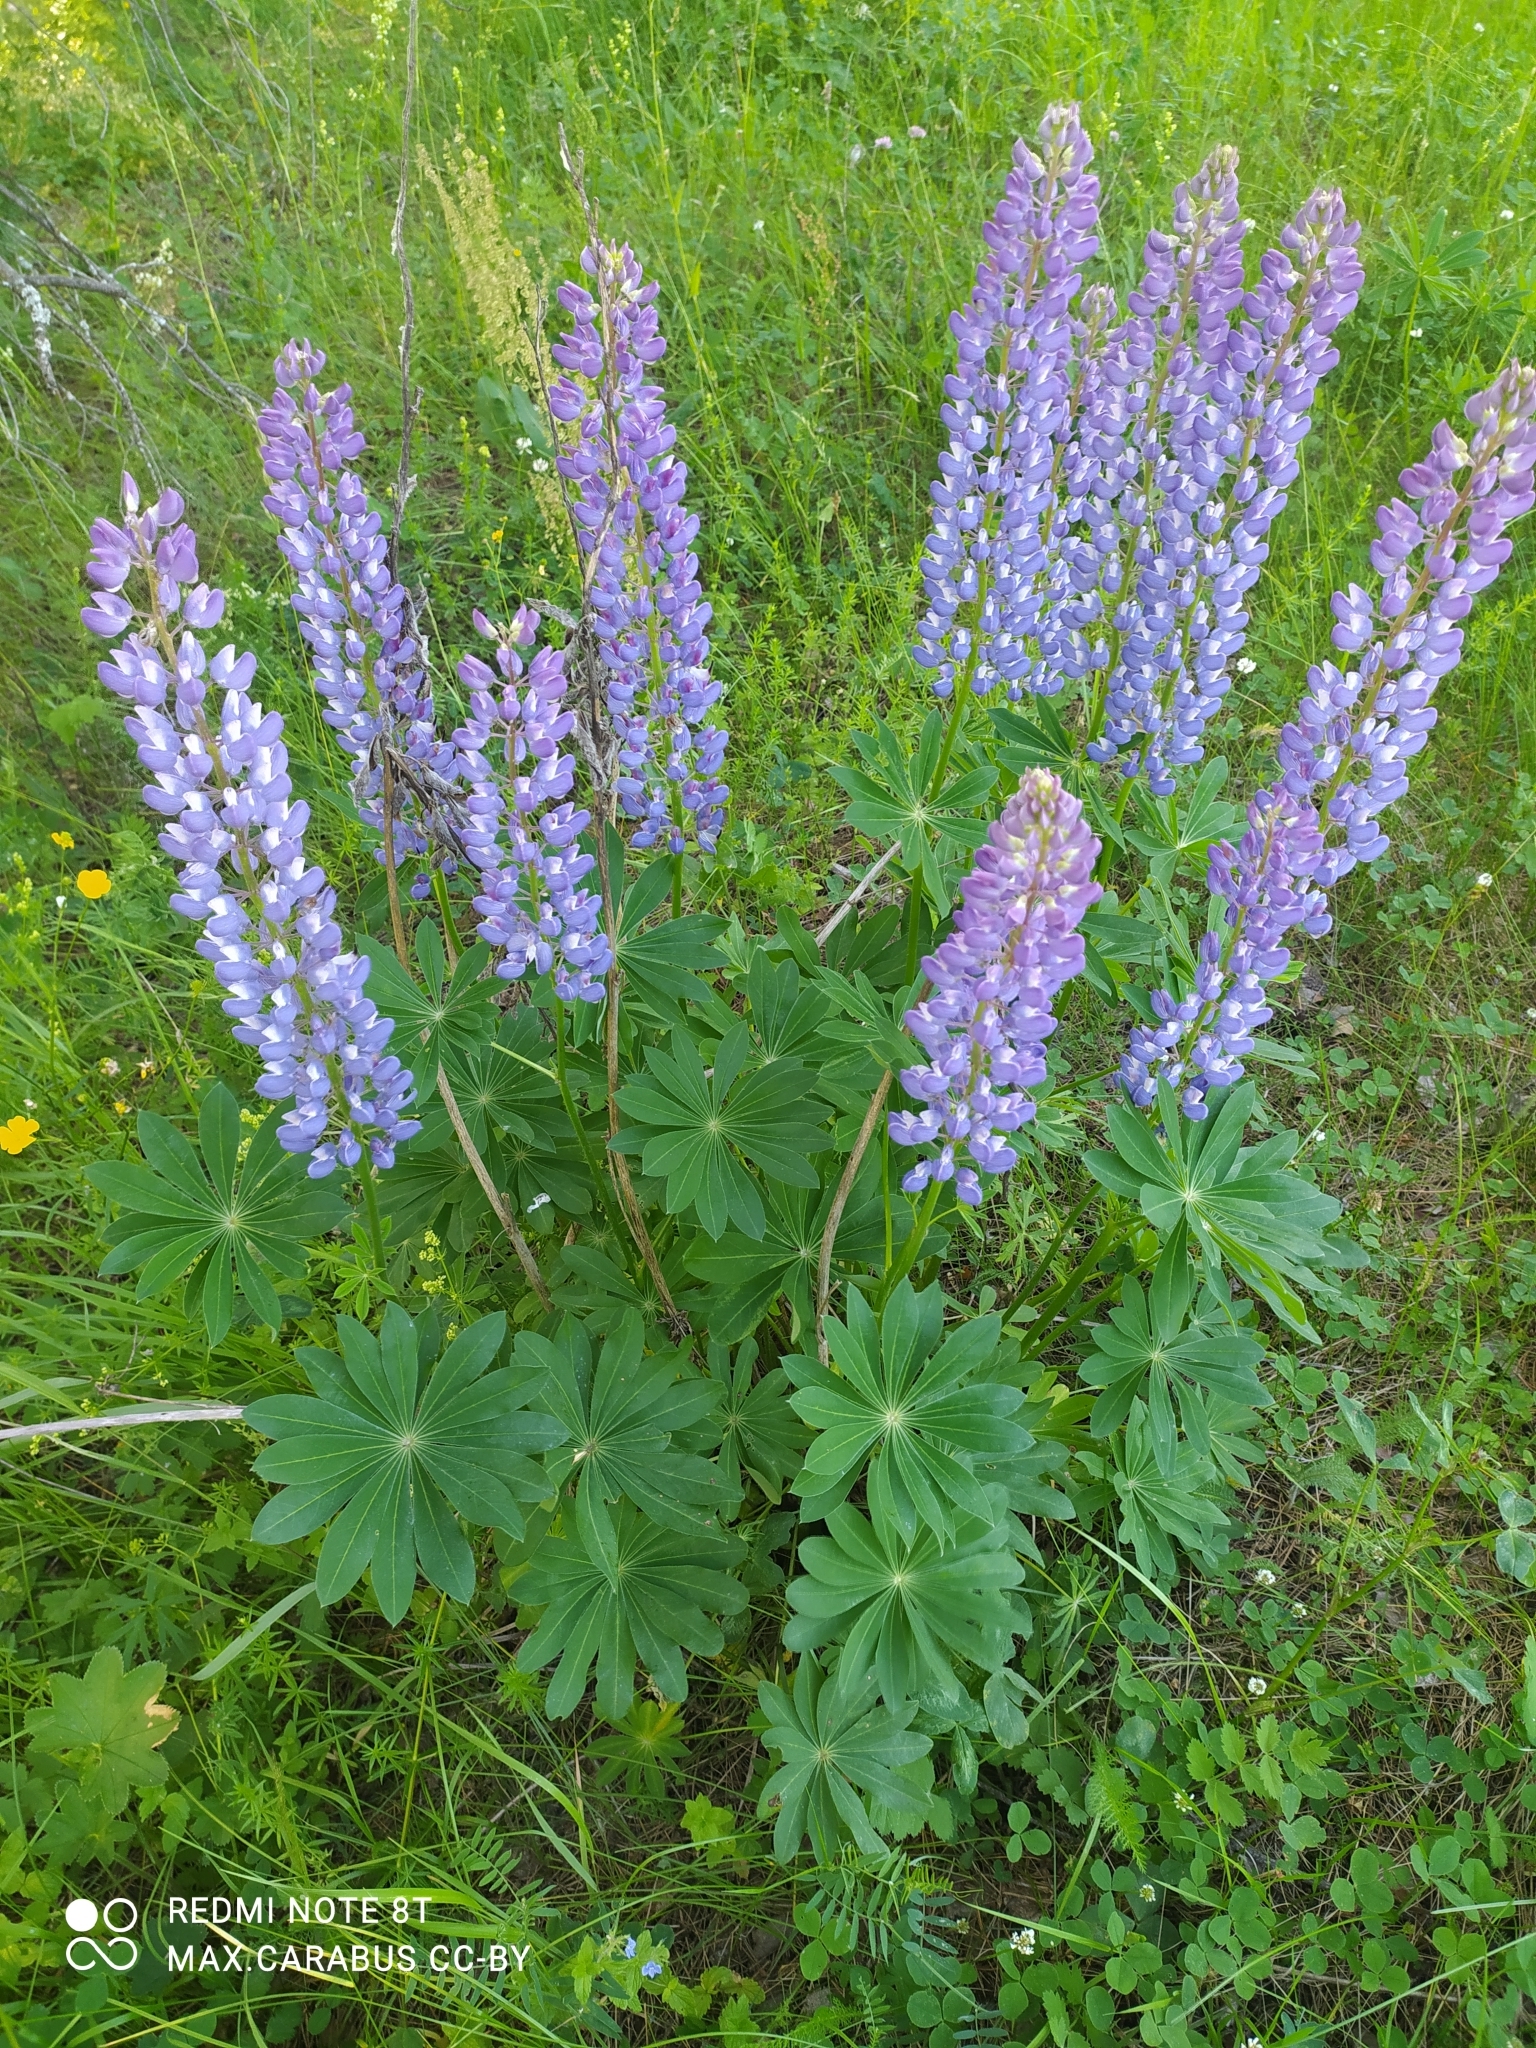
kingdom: Plantae
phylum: Tracheophyta
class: Magnoliopsida
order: Fabales
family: Fabaceae
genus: Lupinus
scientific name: Lupinus polyphyllus
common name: Garden lupin
